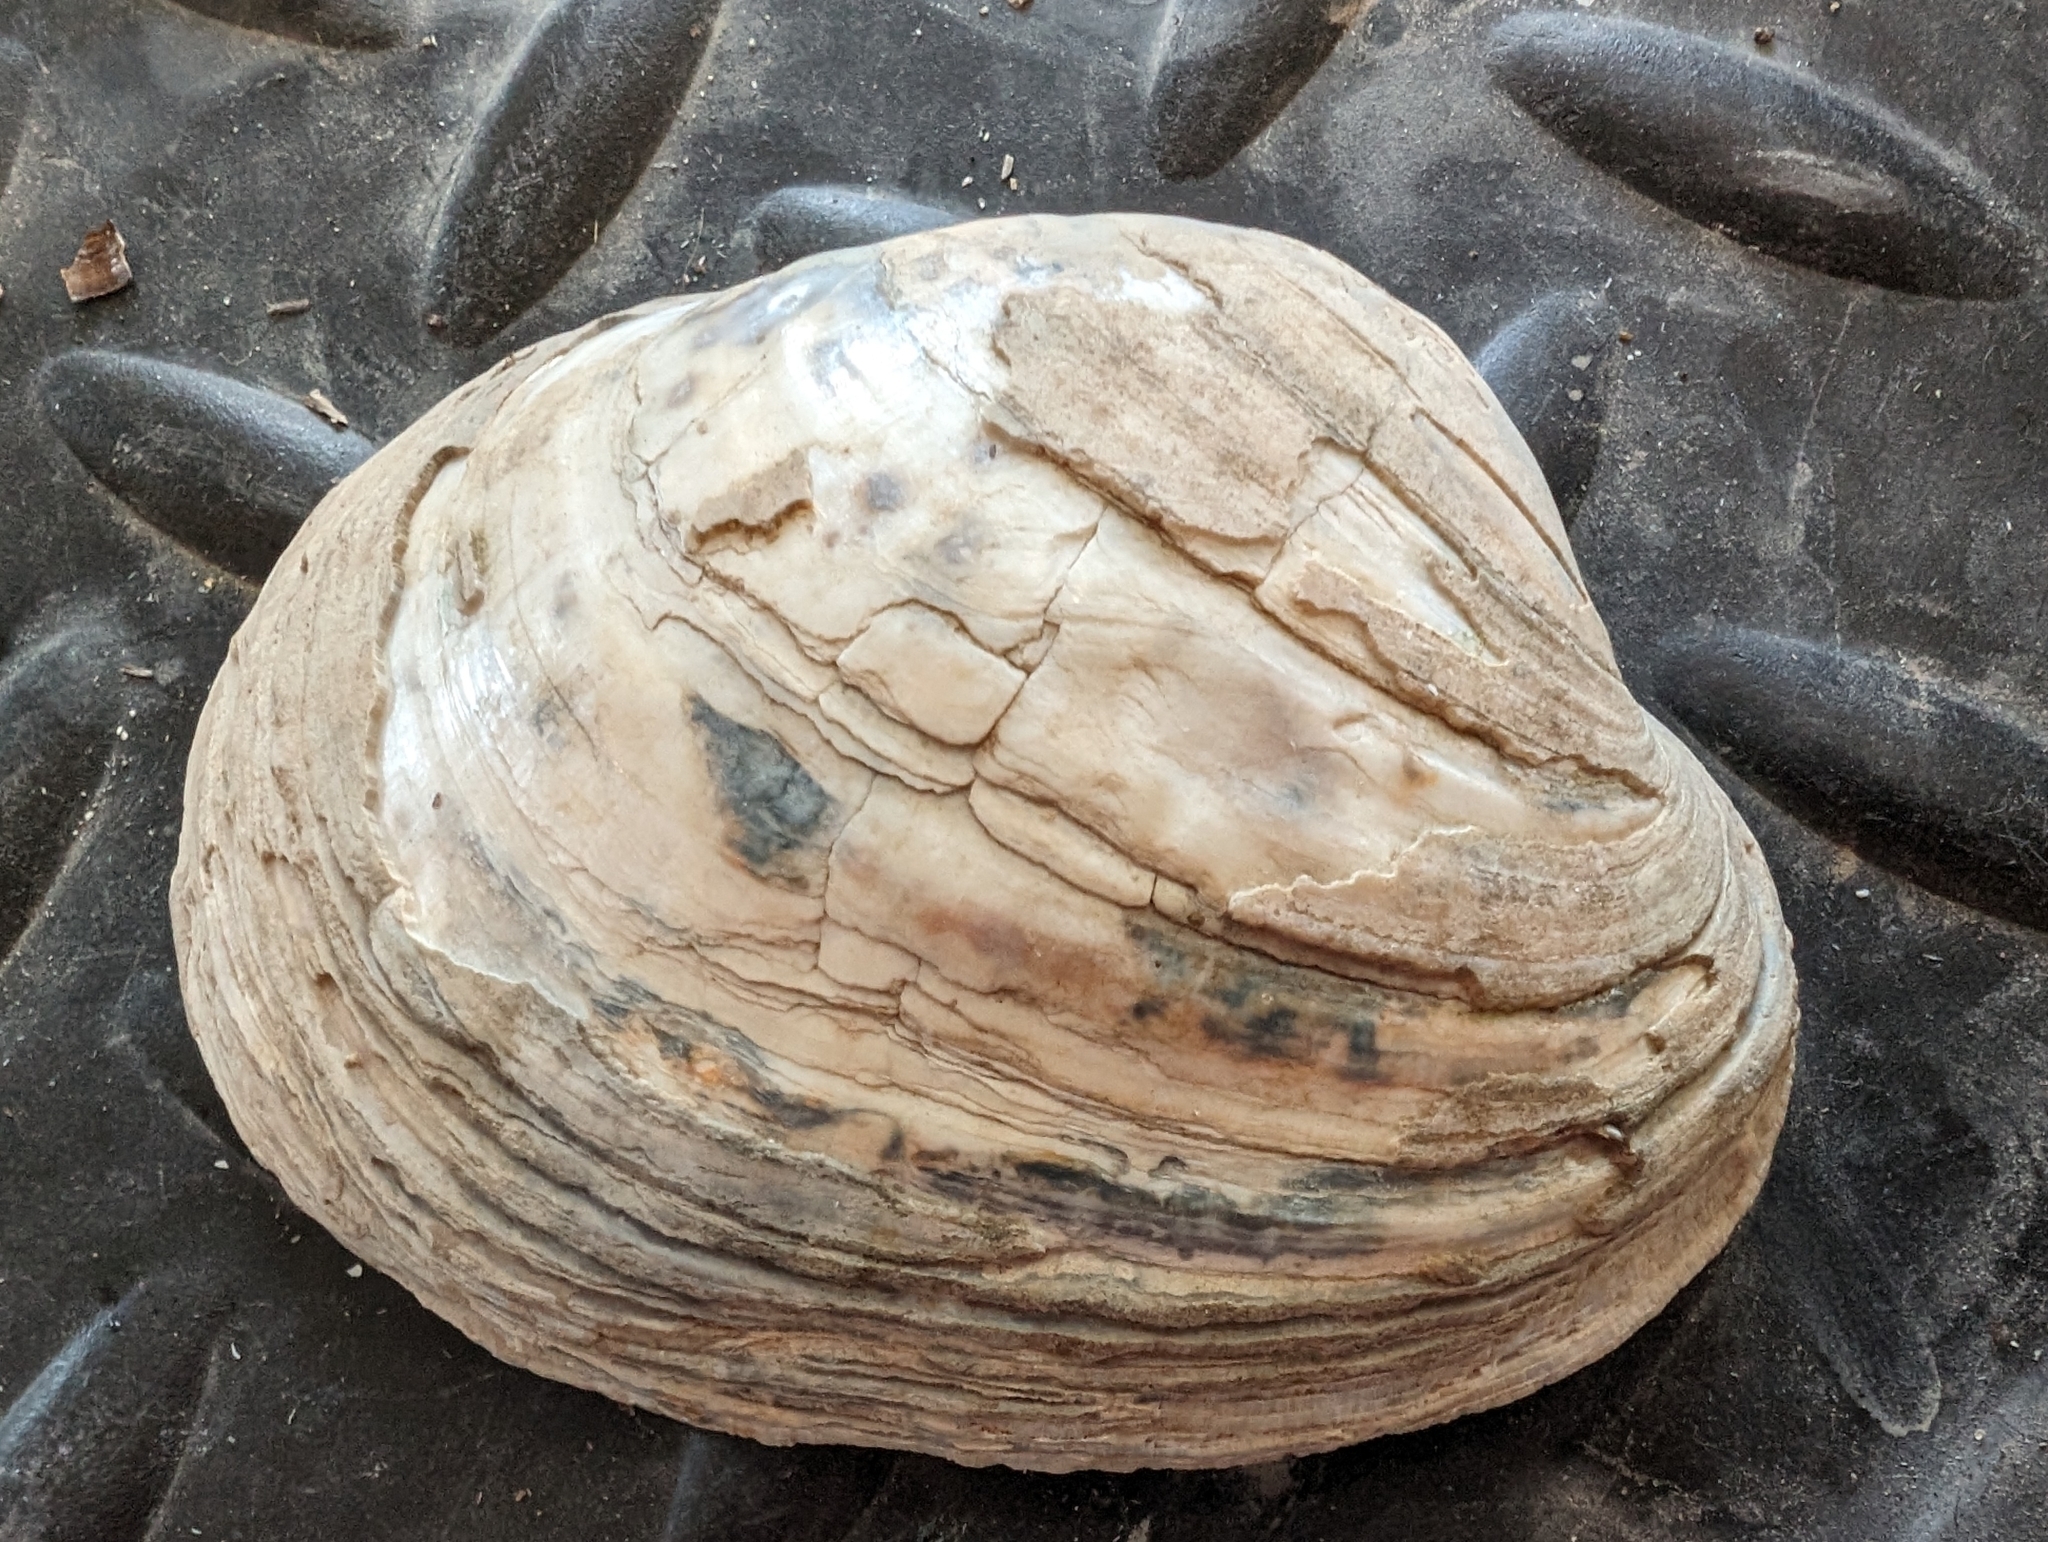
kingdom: Animalia
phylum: Mollusca
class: Bivalvia
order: Unionida
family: Unionidae
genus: Lampsilis
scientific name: Lampsilis cardium
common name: Plain pocketbook
